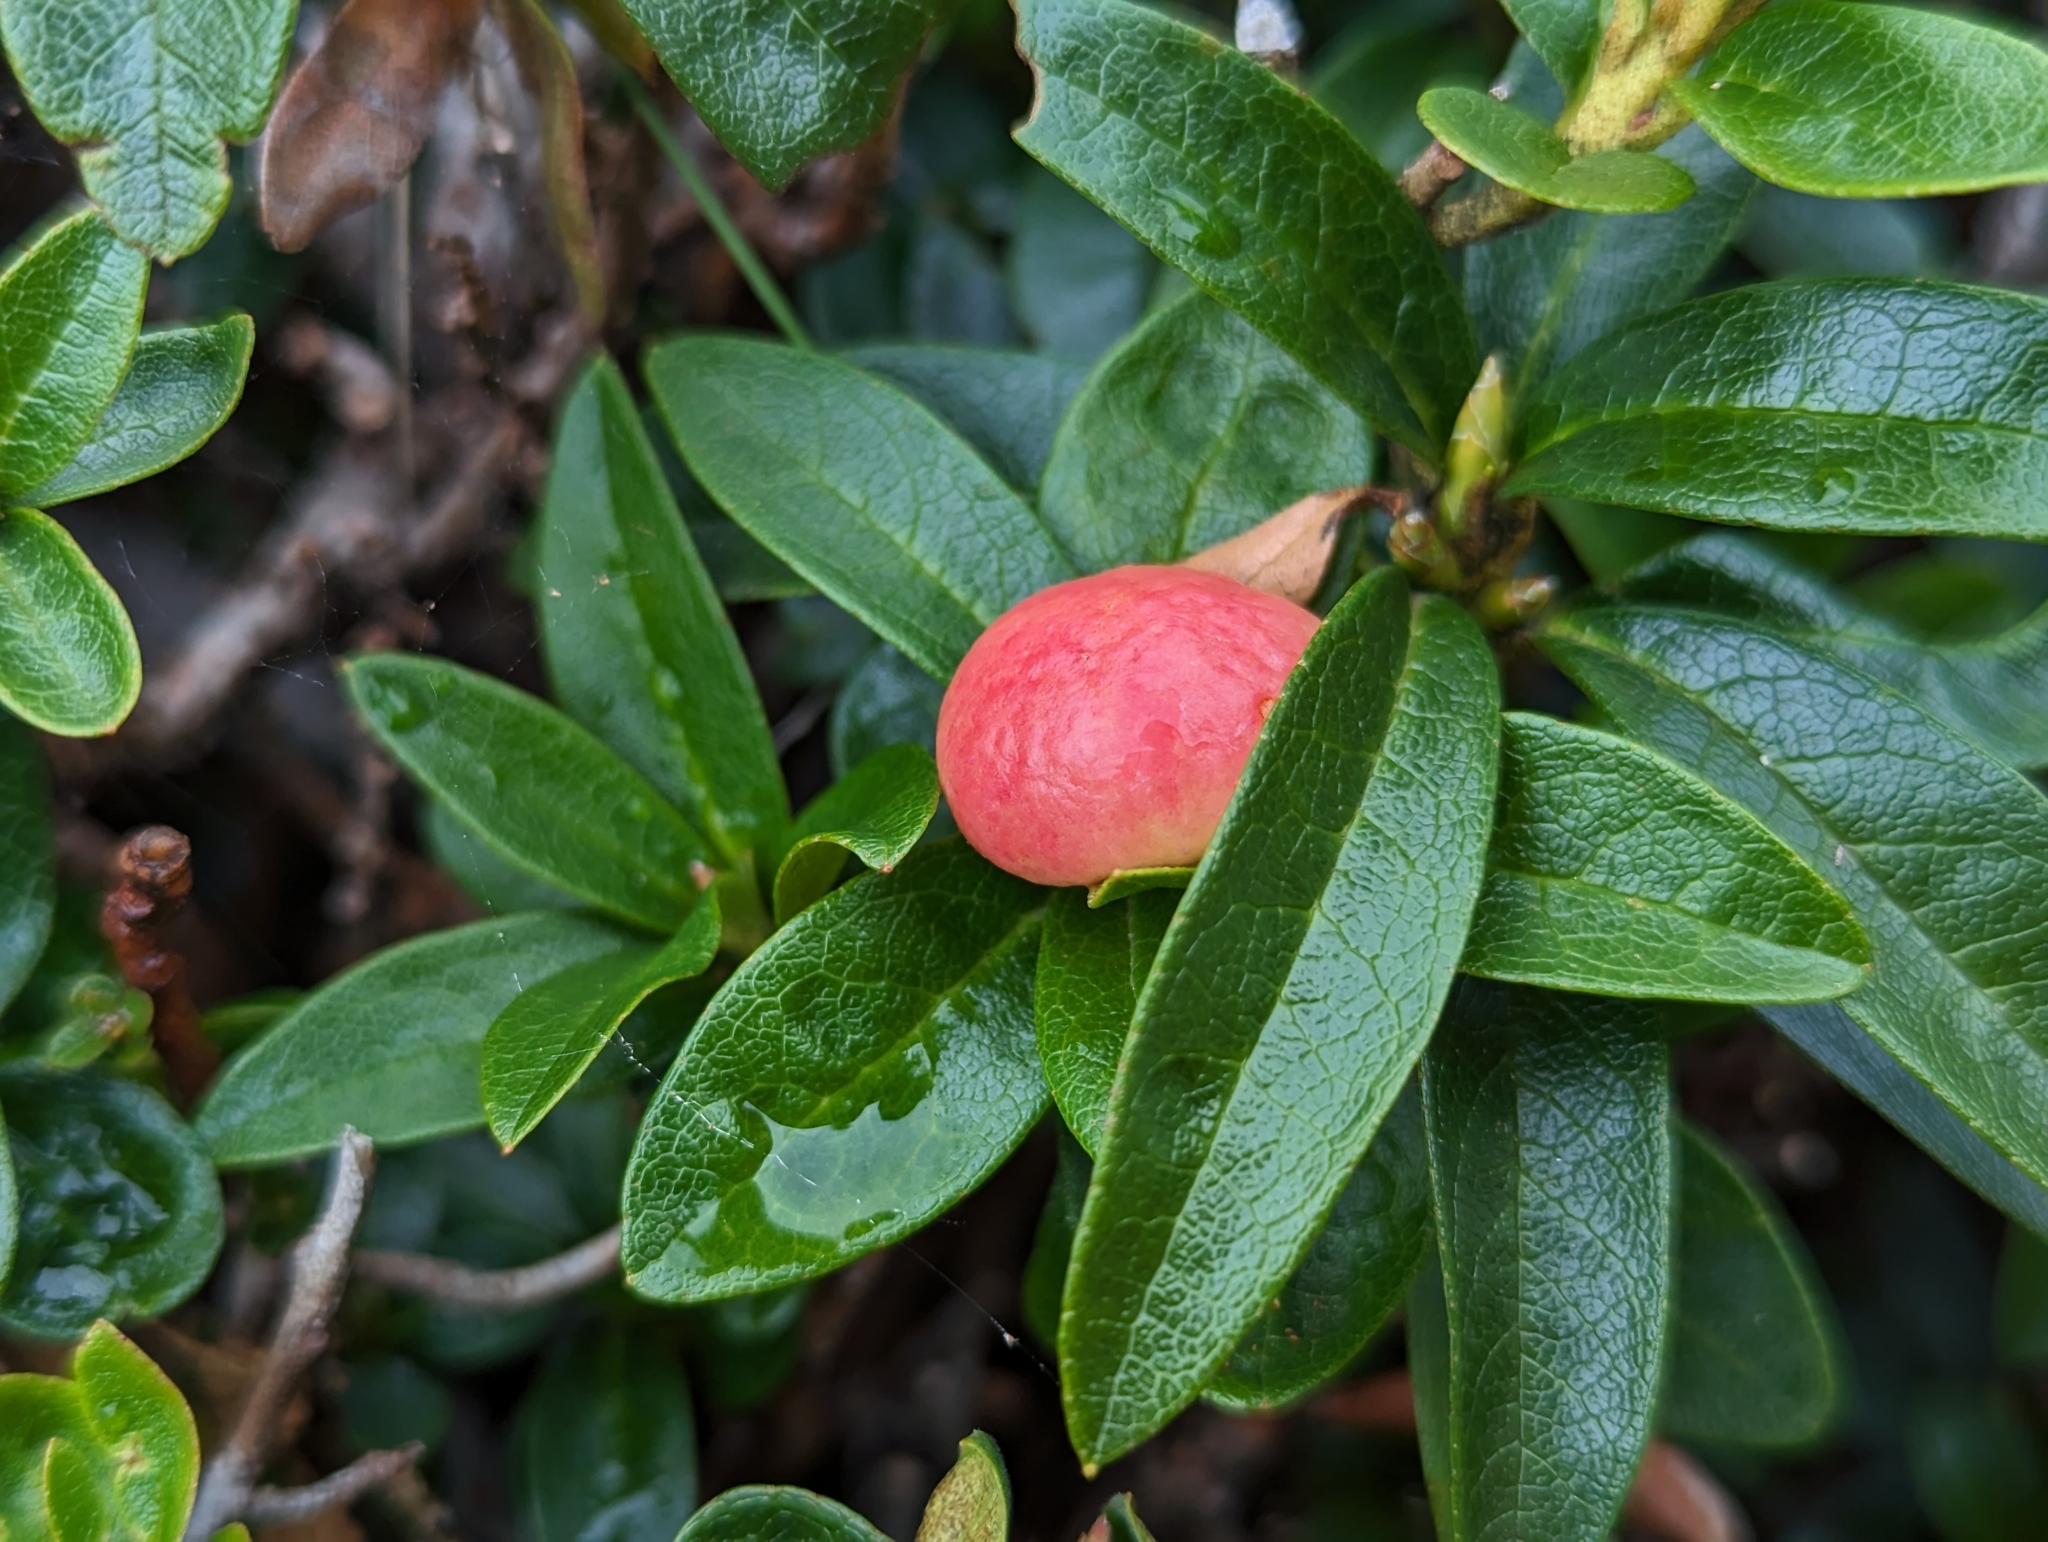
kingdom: Plantae
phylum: Tracheophyta
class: Magnoliopsida
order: Ericales
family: Ericaceae
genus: Rhododendron
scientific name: Rhododendron ferrugineum
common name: Alpenrose
